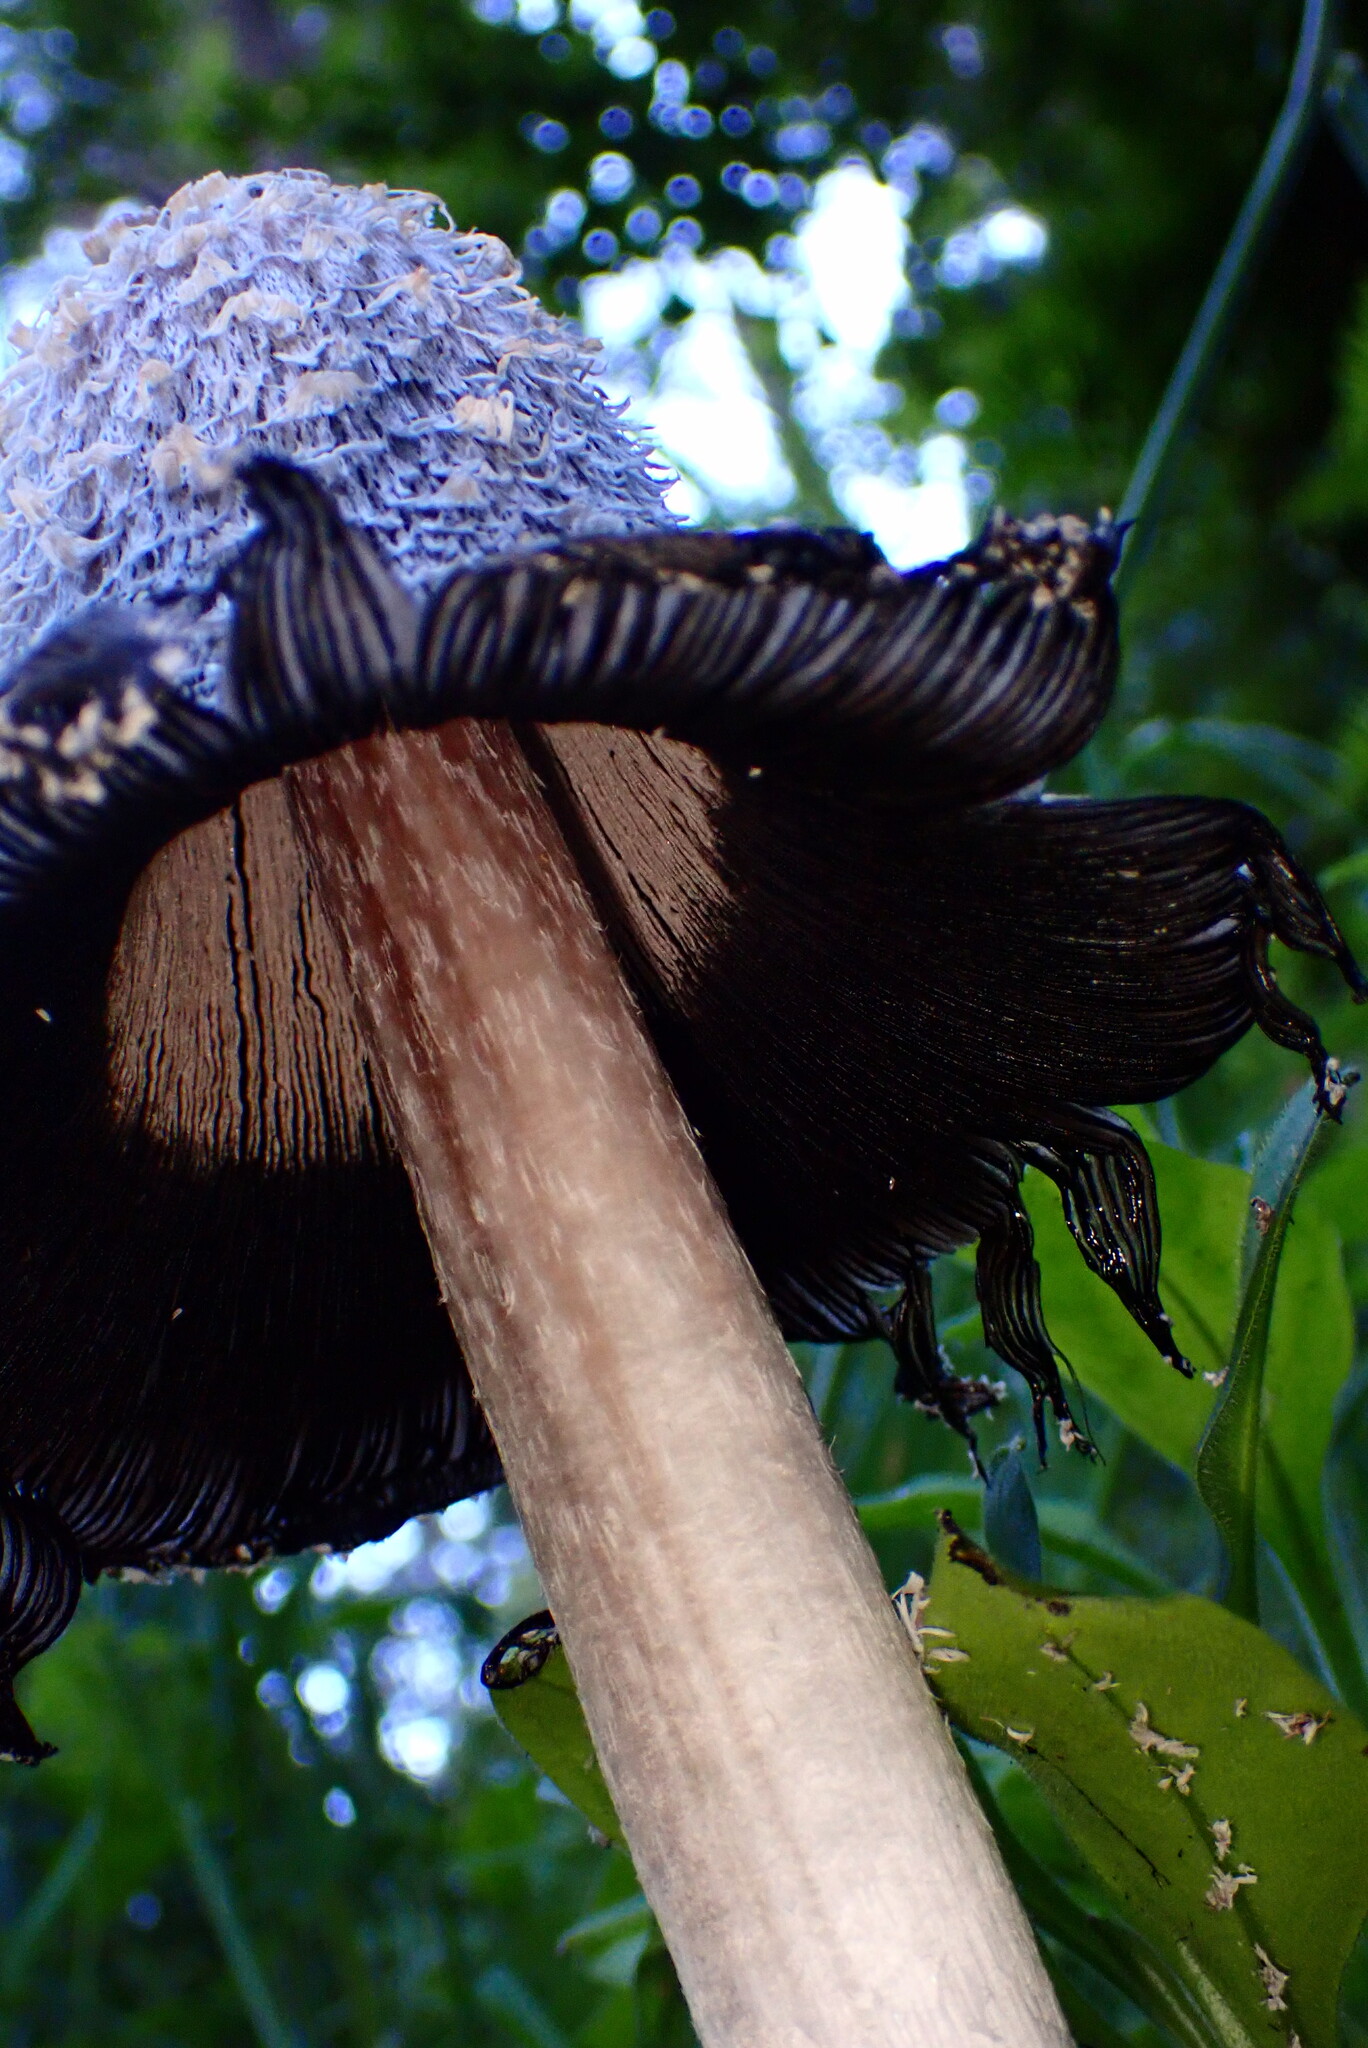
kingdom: Fungi
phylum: Basidiomycota
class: Agaricomycetes
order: Agaricales
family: Agaricaceae
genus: Coprinus
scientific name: Coprinus comatus
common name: Lawyer's wig
